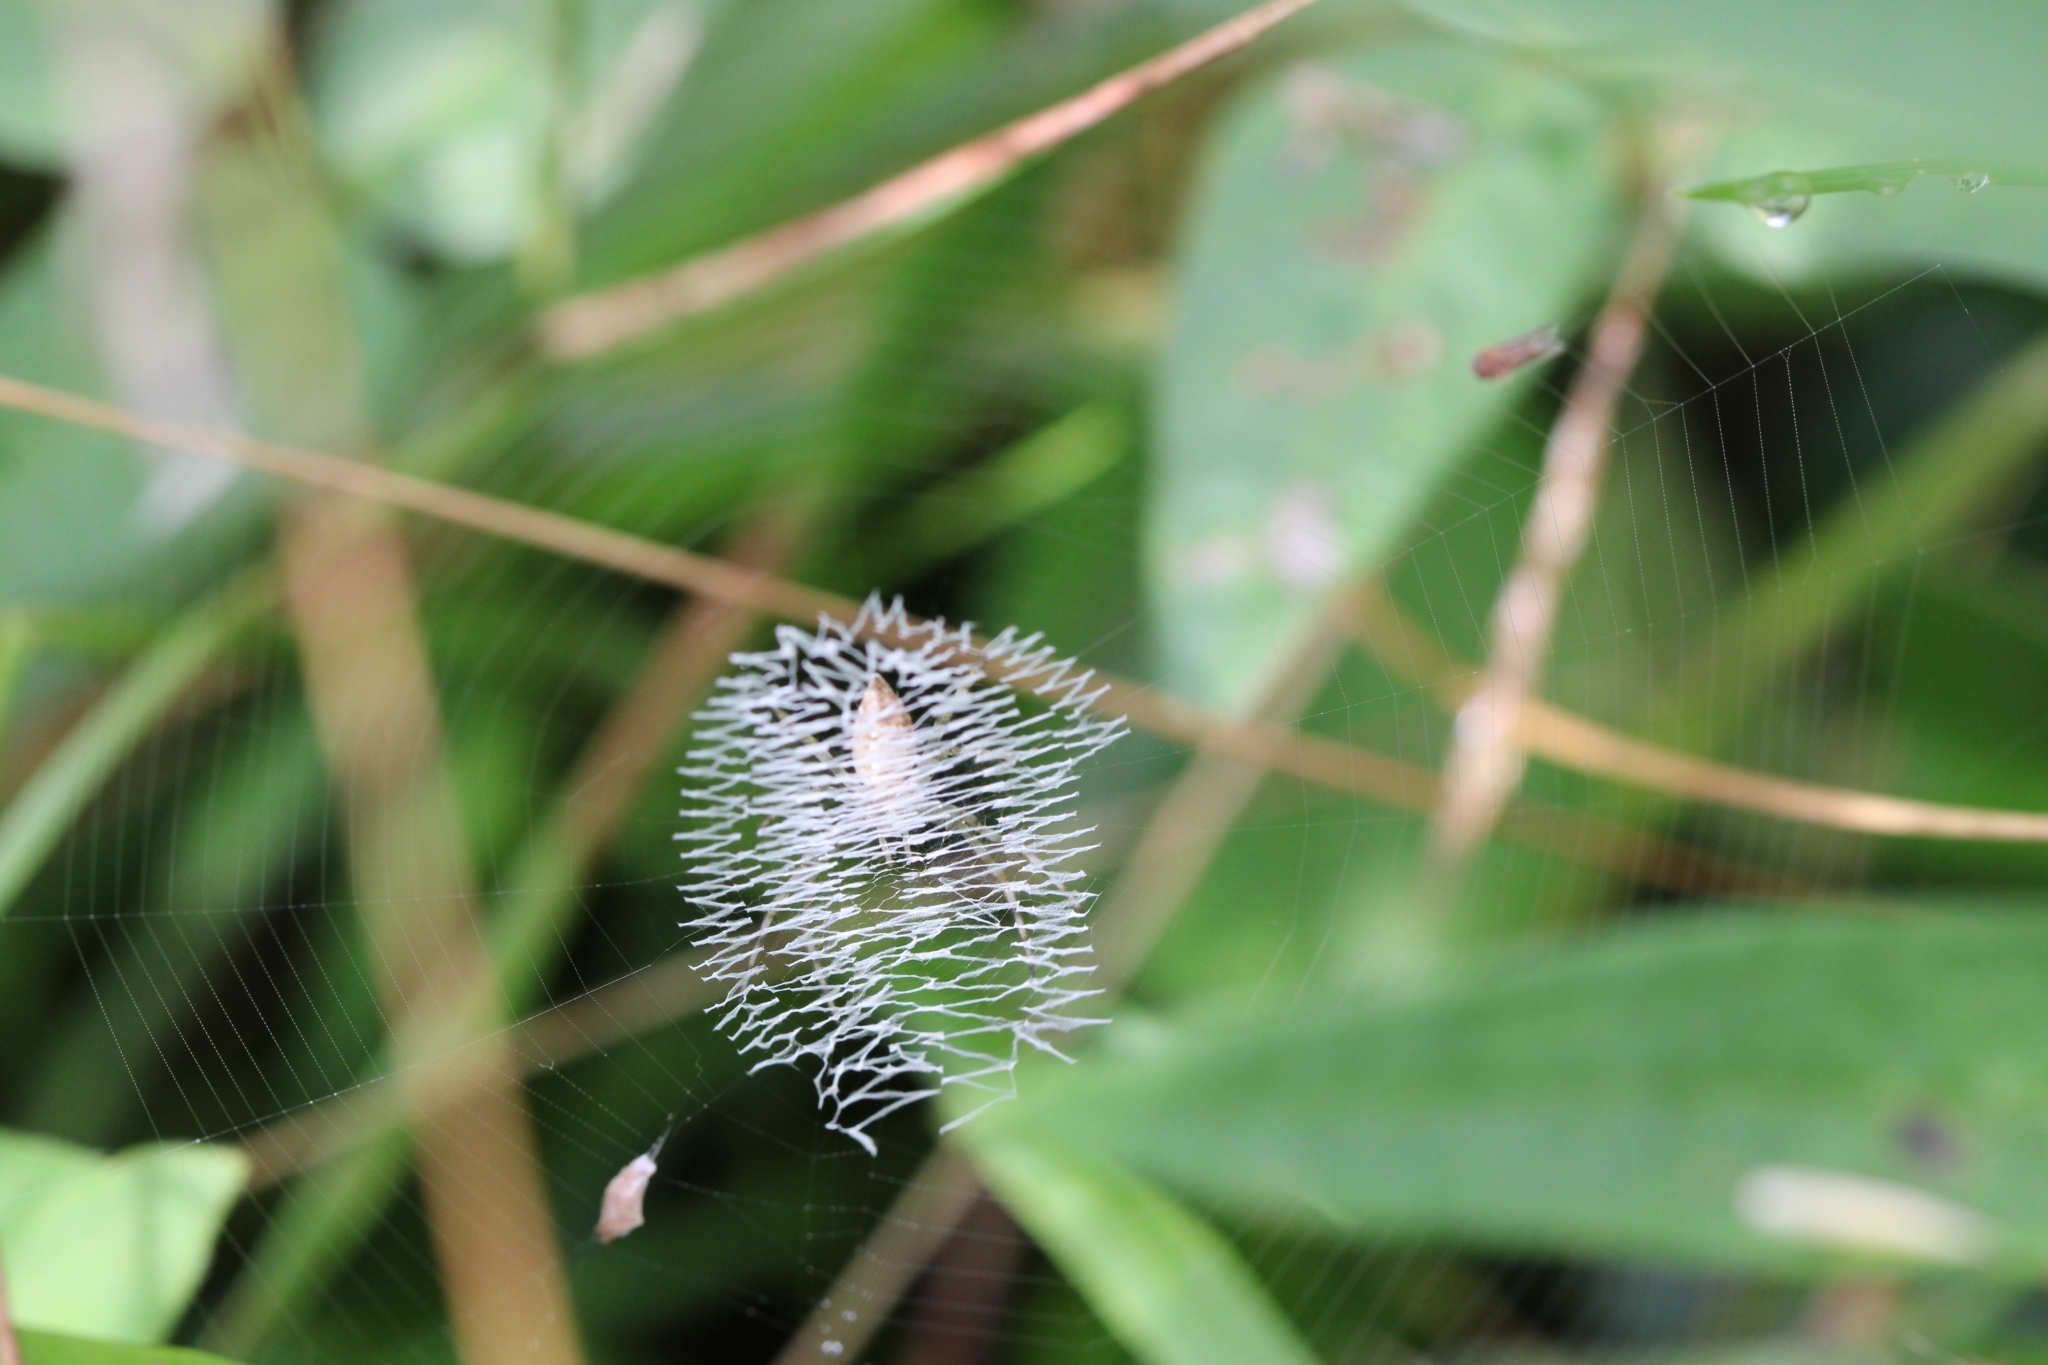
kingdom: Animalia
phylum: Arthropoda
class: Arachnida
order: Araneae
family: Araneidae
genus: Argiope
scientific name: Argiope aurantia
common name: Orb weavers
